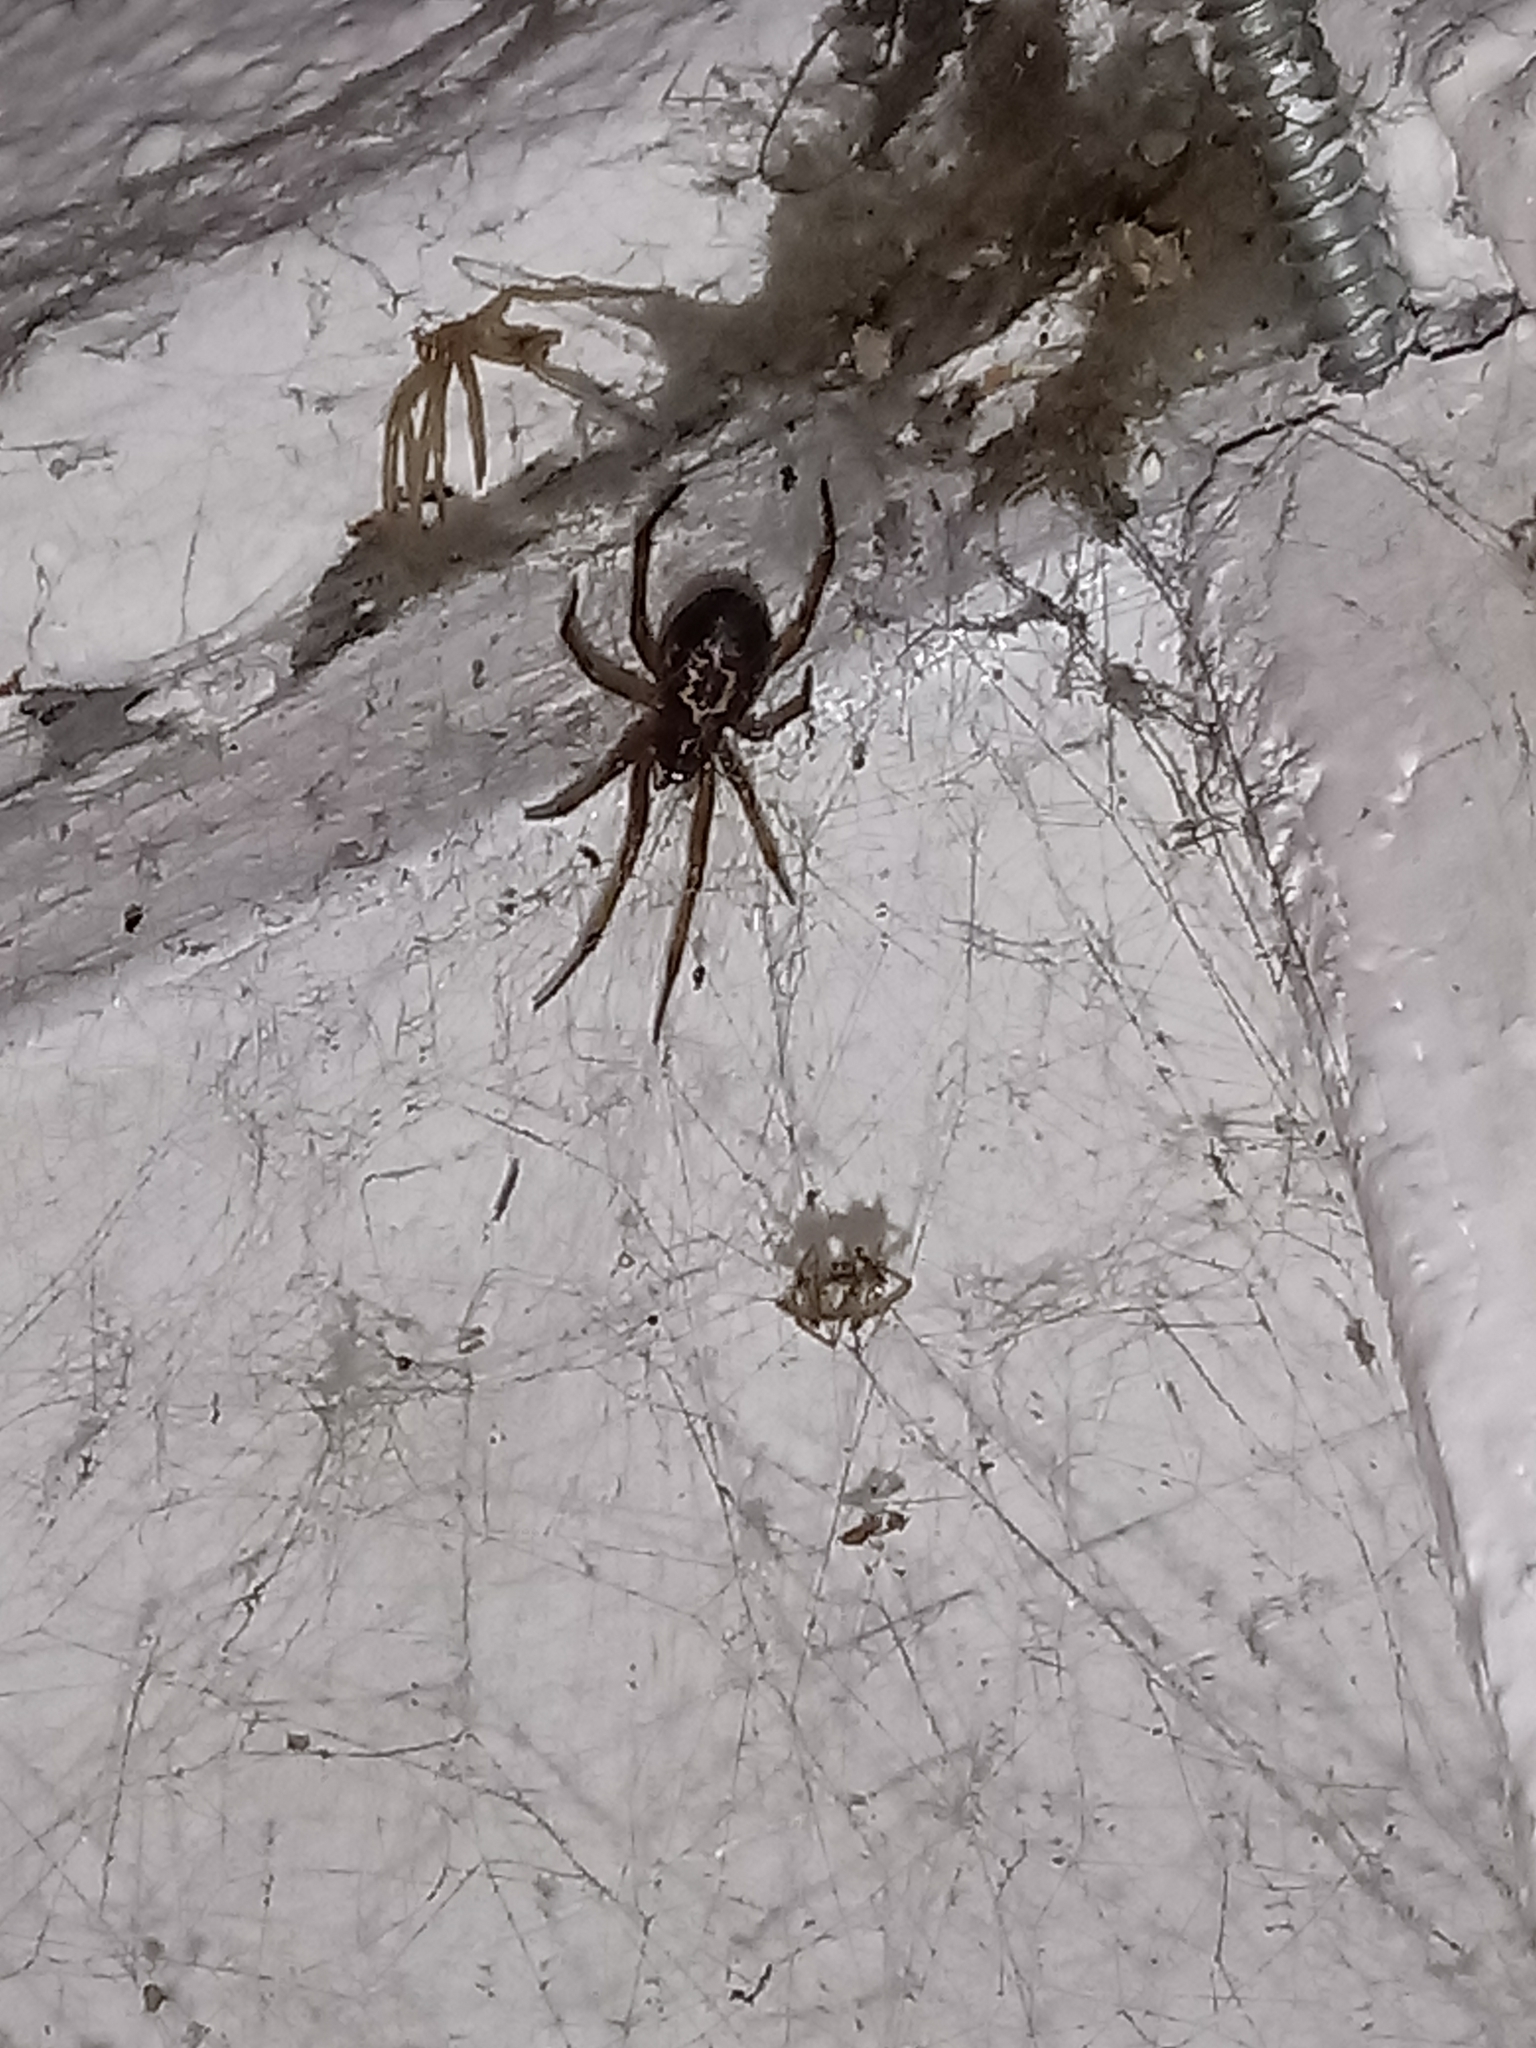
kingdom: Animalia
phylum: Arthropoda
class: Arachnida
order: Araneae
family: Theridiidae
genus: Steatoda
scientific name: Steatoda nobilis
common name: Cobweb weaver
